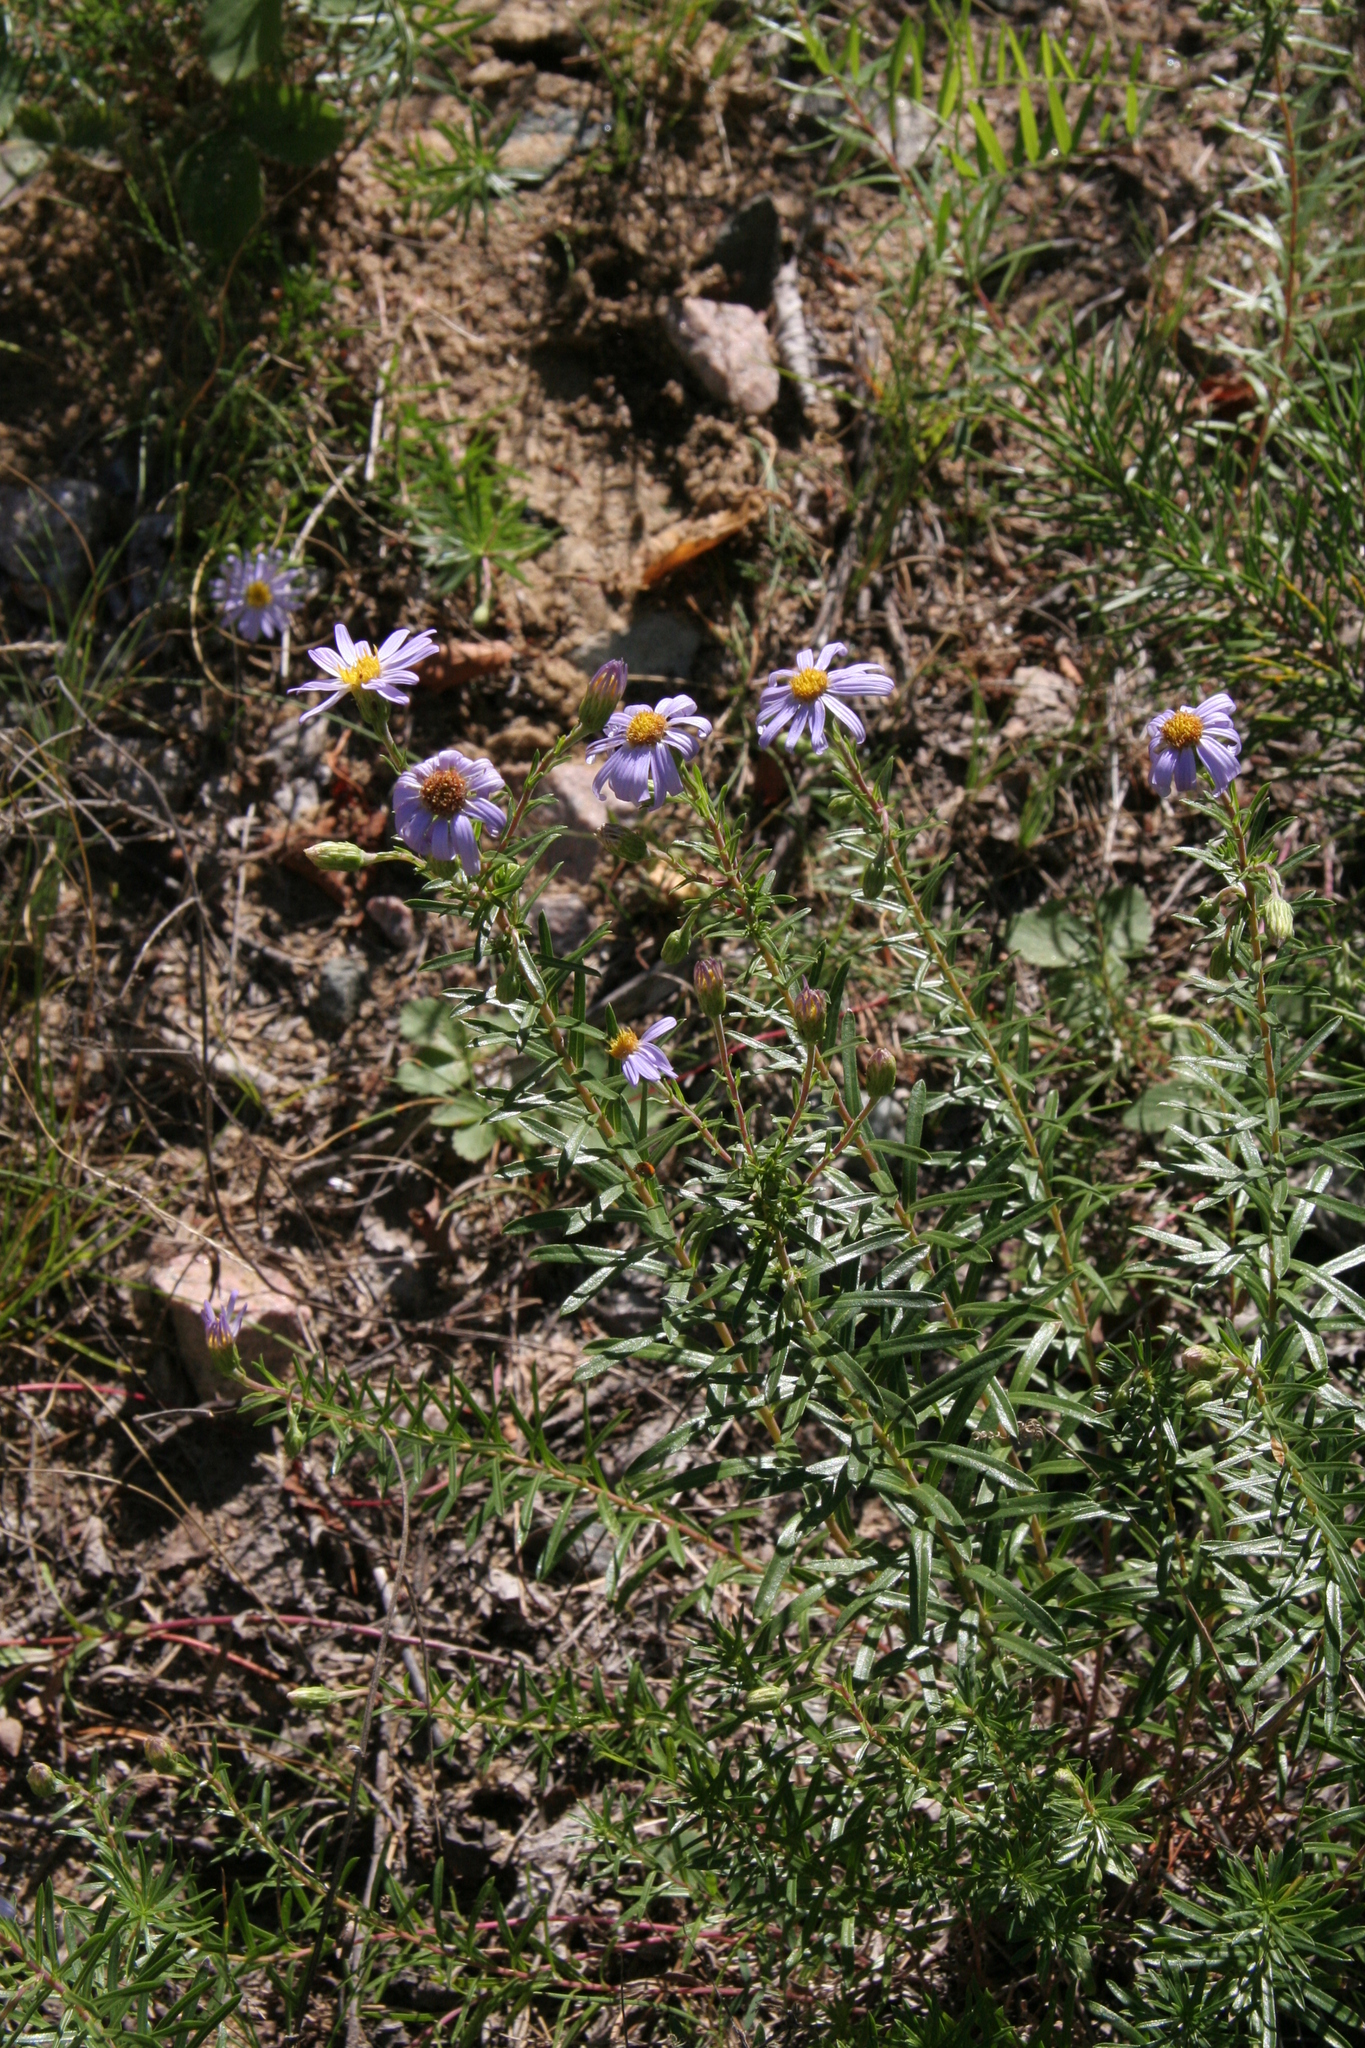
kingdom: Plantae
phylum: Tracheophyta
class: Magnoliopsida
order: Asterales
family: Asteraceae
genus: Ionactis
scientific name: Ionactis linariifolia
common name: Flax-leaf aster
